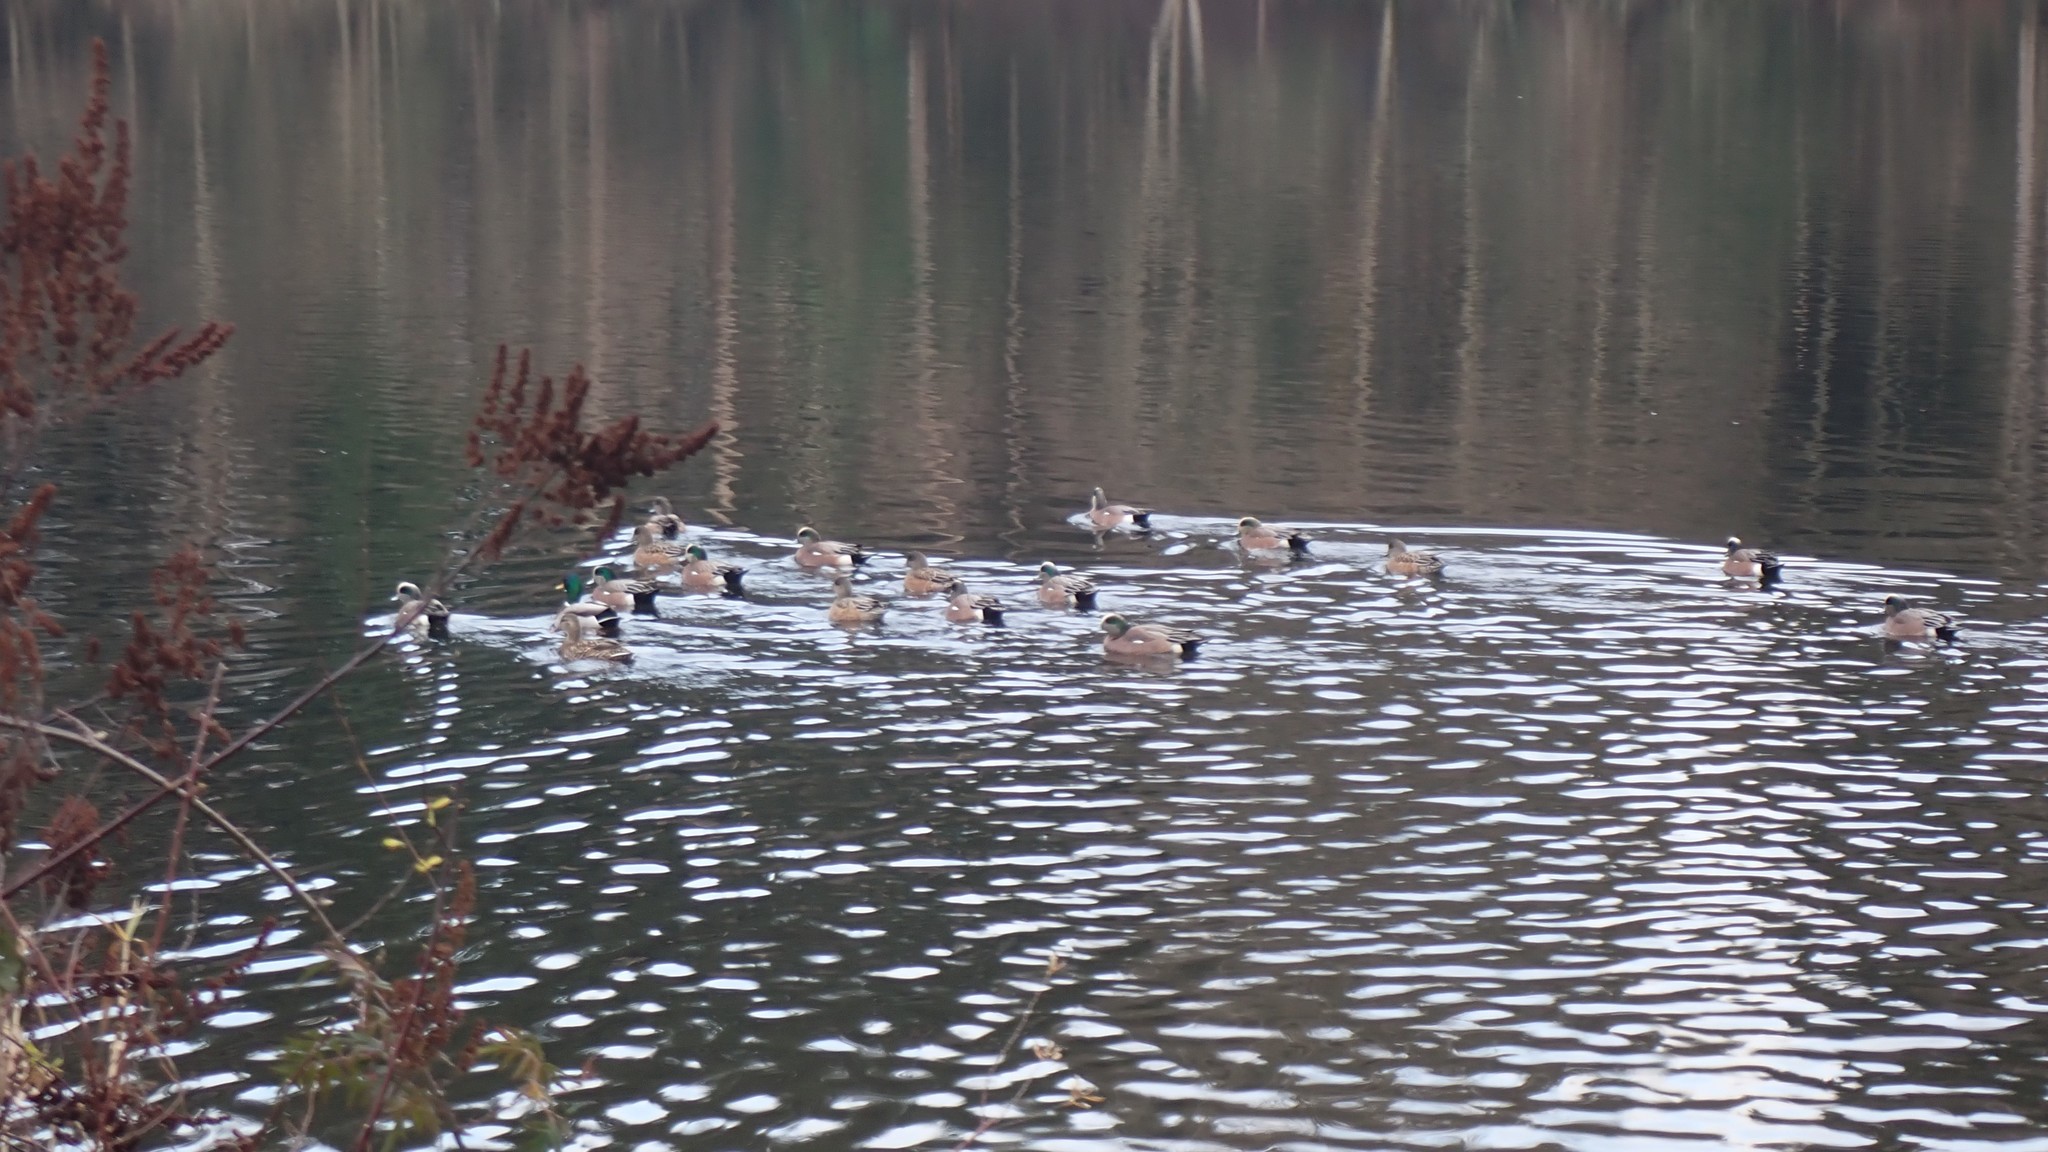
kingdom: Animalia
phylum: Chordata
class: Aves
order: Anseriformes
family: Anatidae
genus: Mareca
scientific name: Mareca americana
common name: American wigeon
